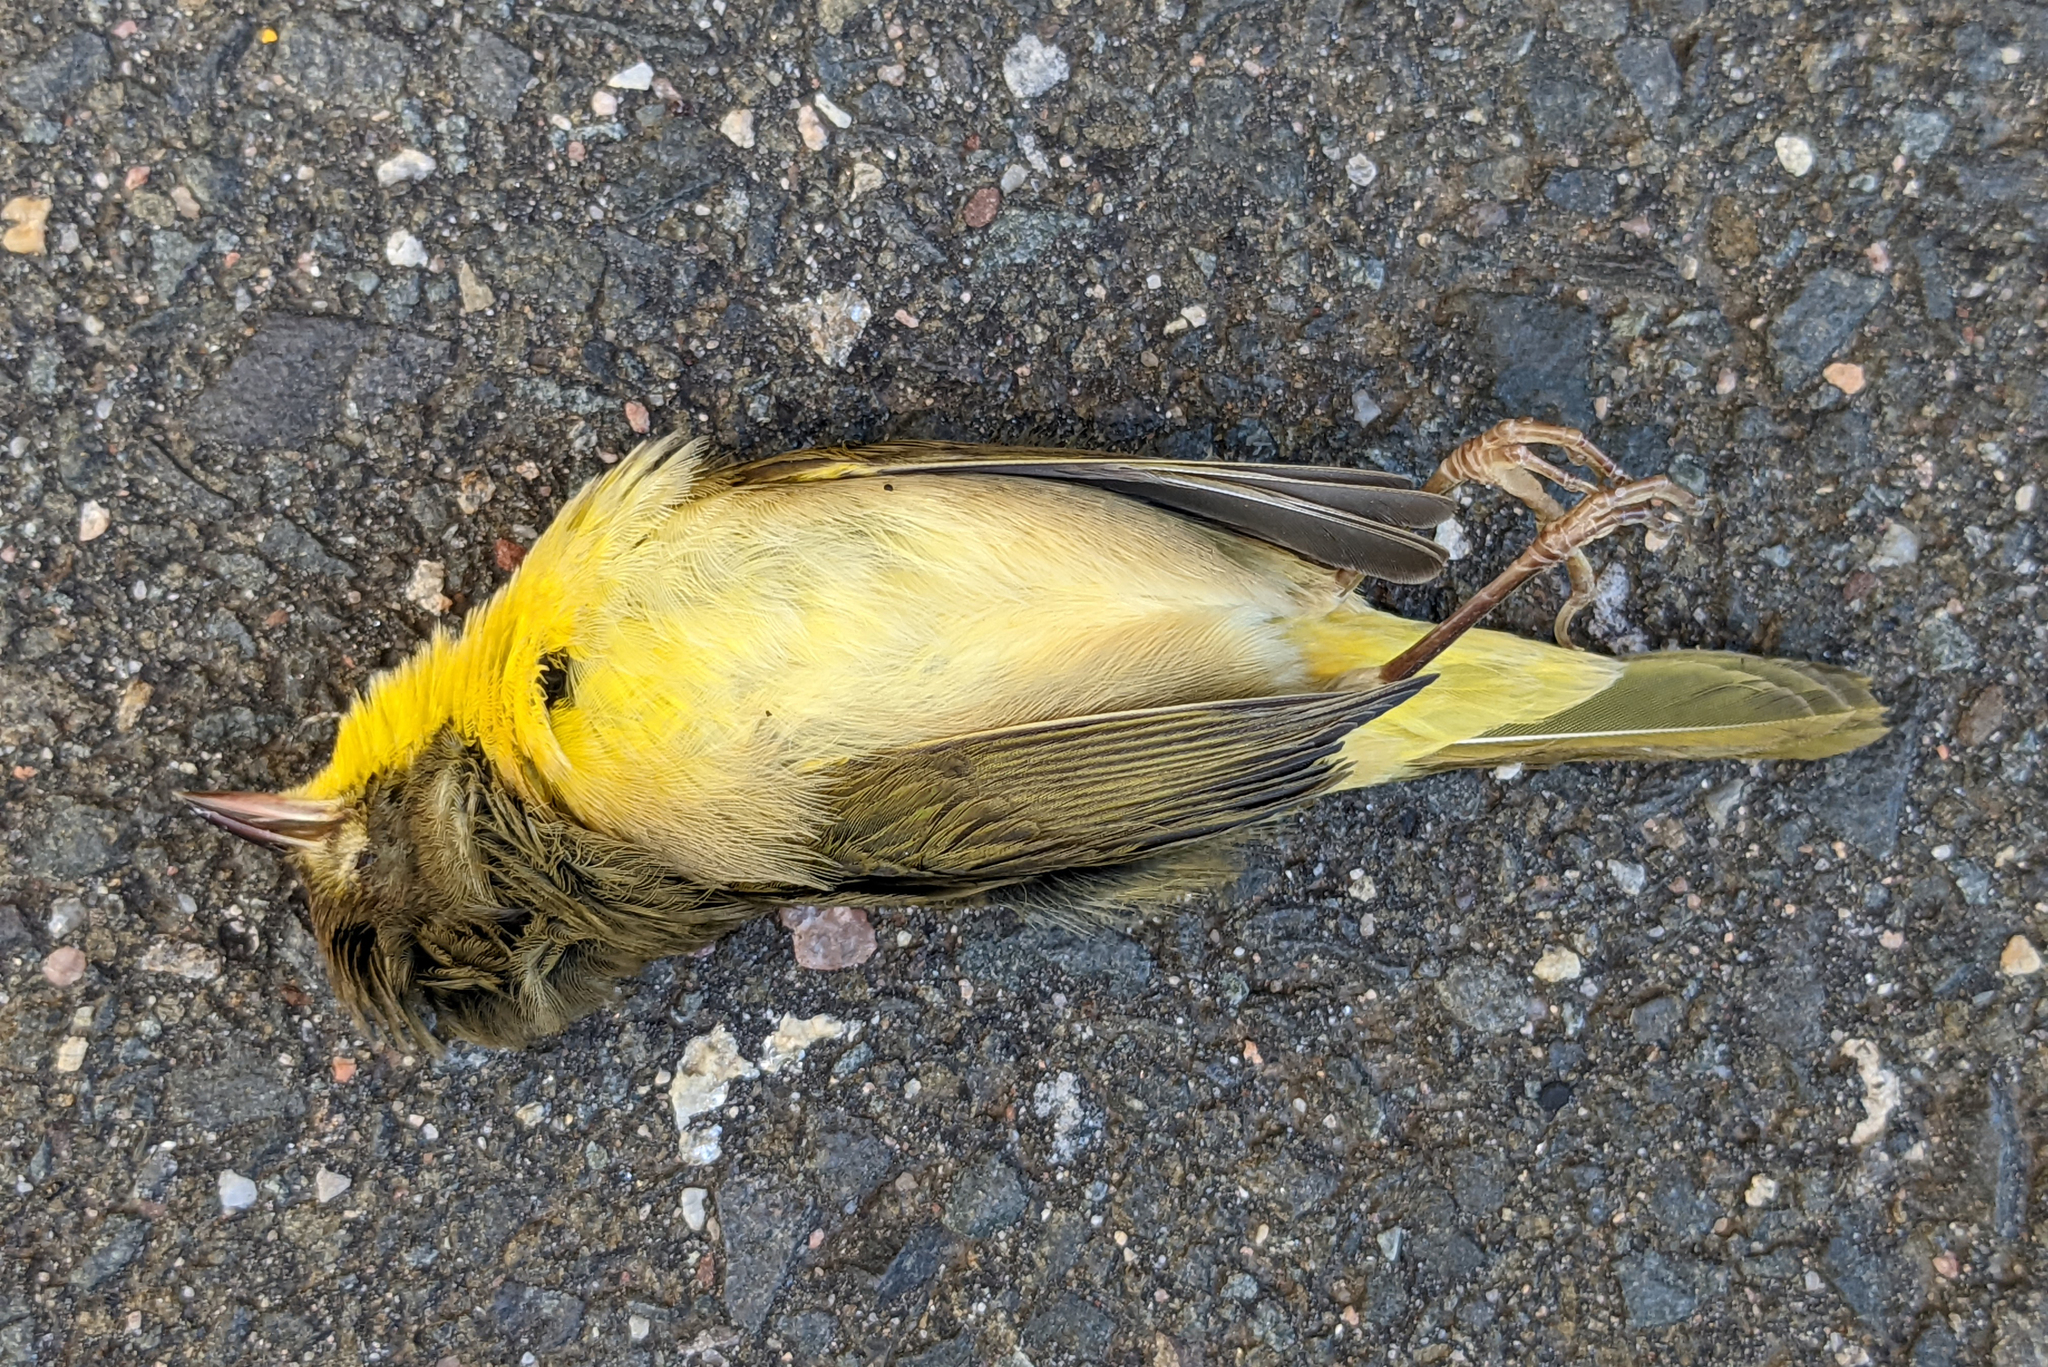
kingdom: Animalia
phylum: Chordata
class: Aves
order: Passeriformes
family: Parulidae
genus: Geothlypis
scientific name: Geothlypis trichas
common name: Common yellowthroat
